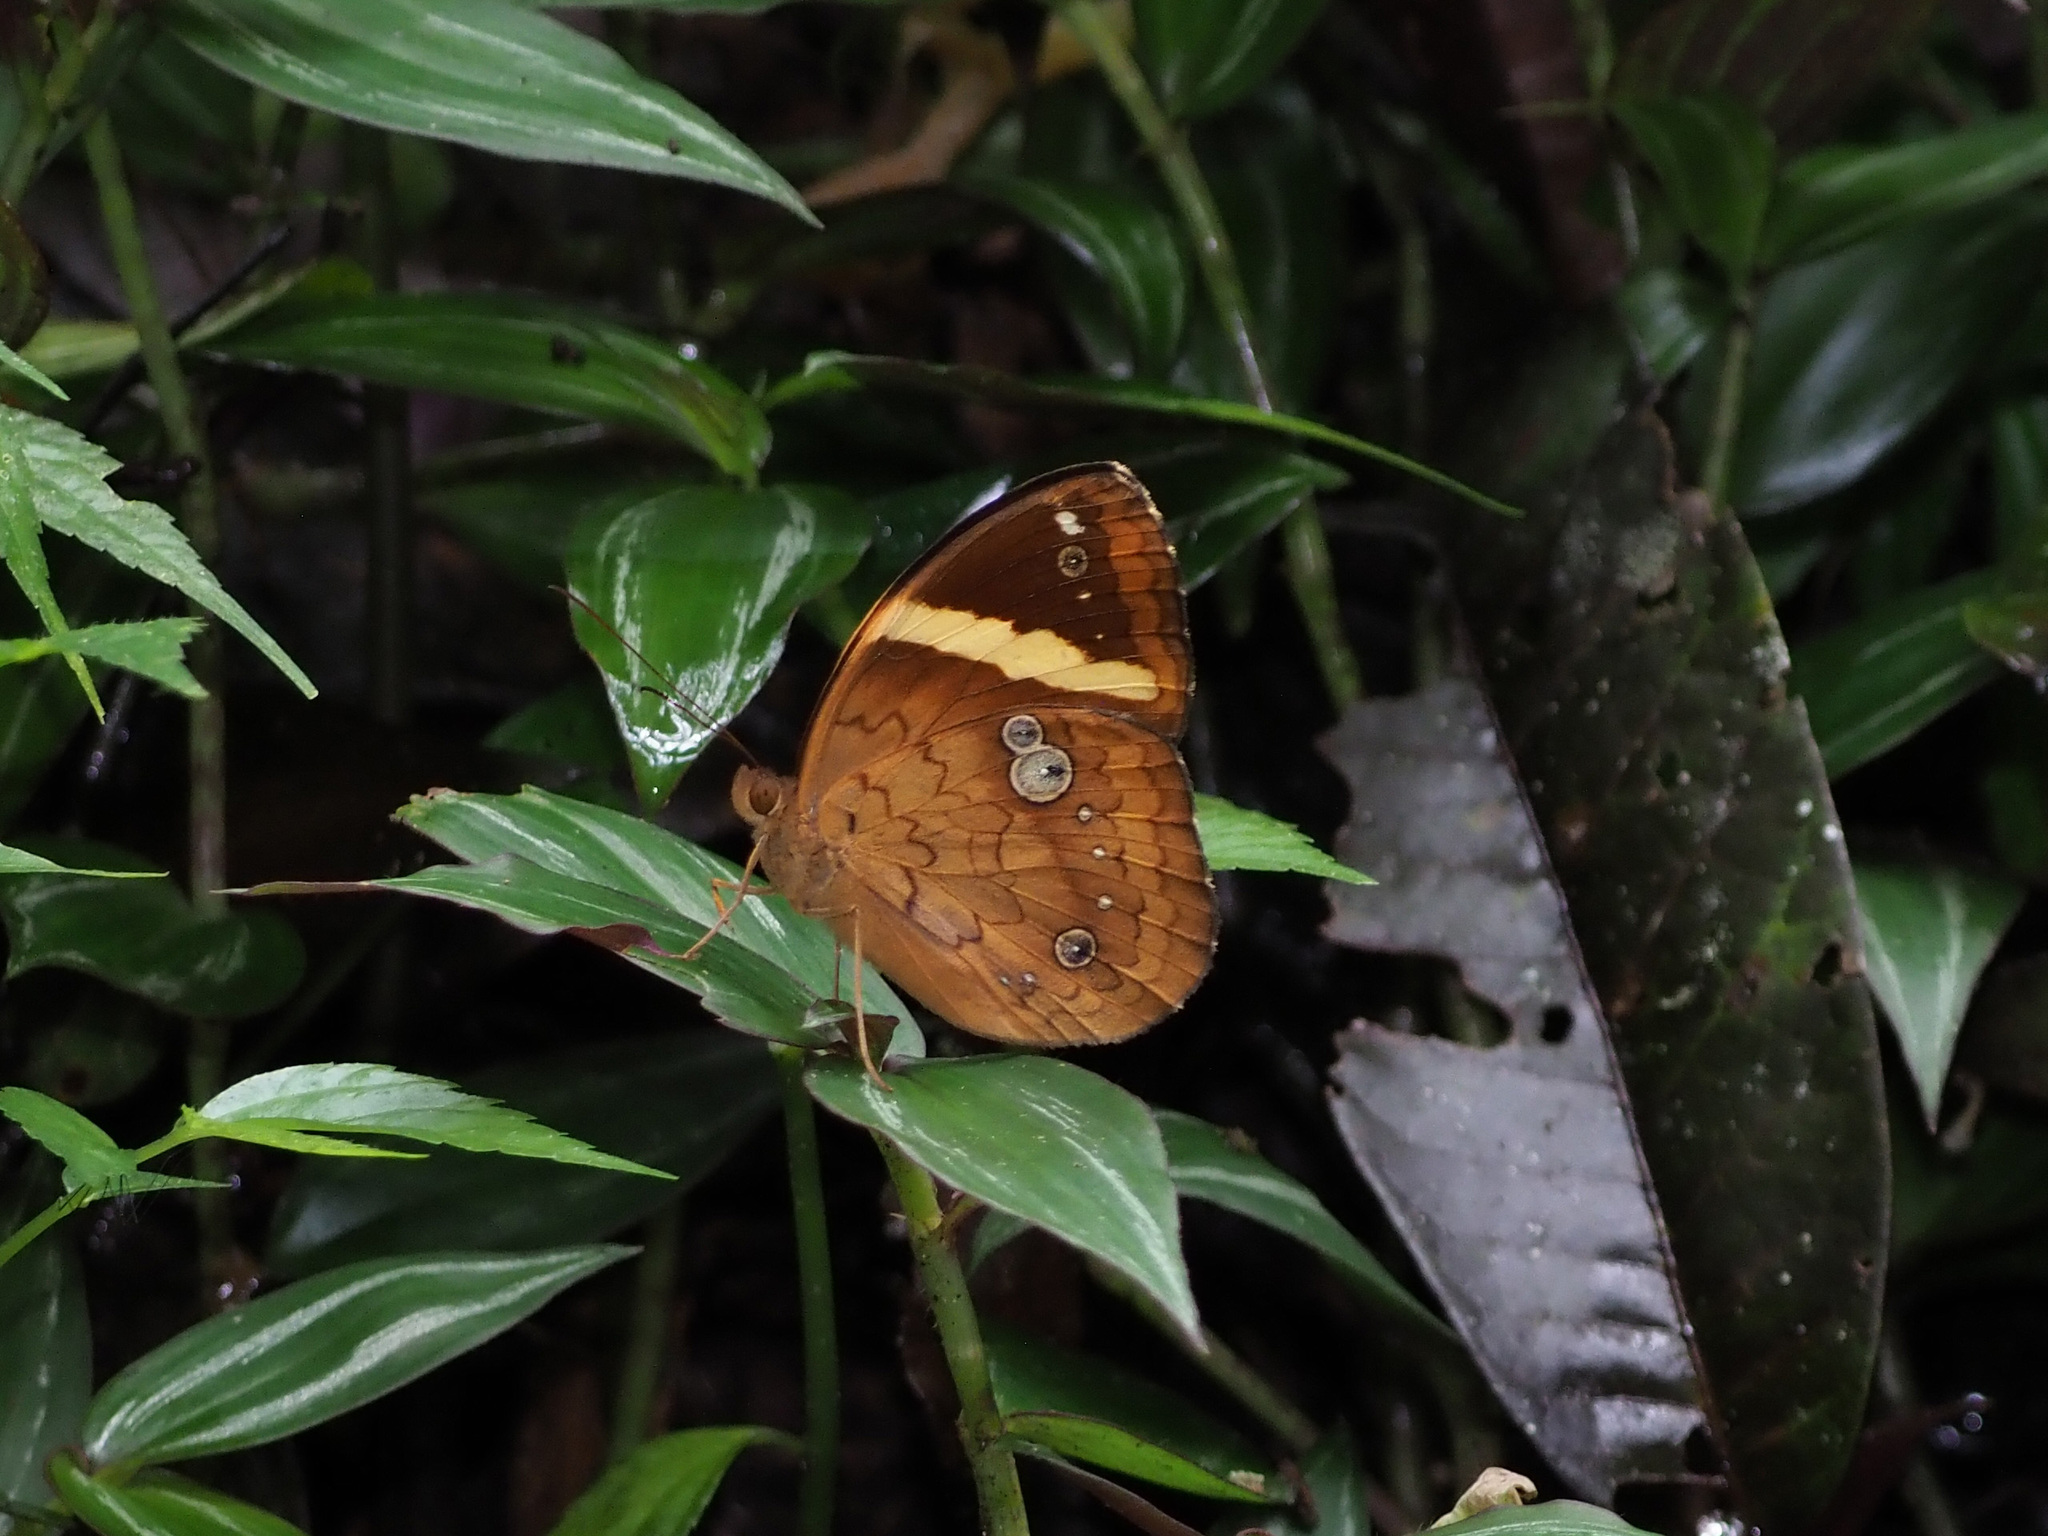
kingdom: Animalia
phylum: Arthropoda
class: Insecta
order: Lepidoptera
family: Nymphalidae
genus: Xanthotaenia
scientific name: Xanthotaenia busiris
